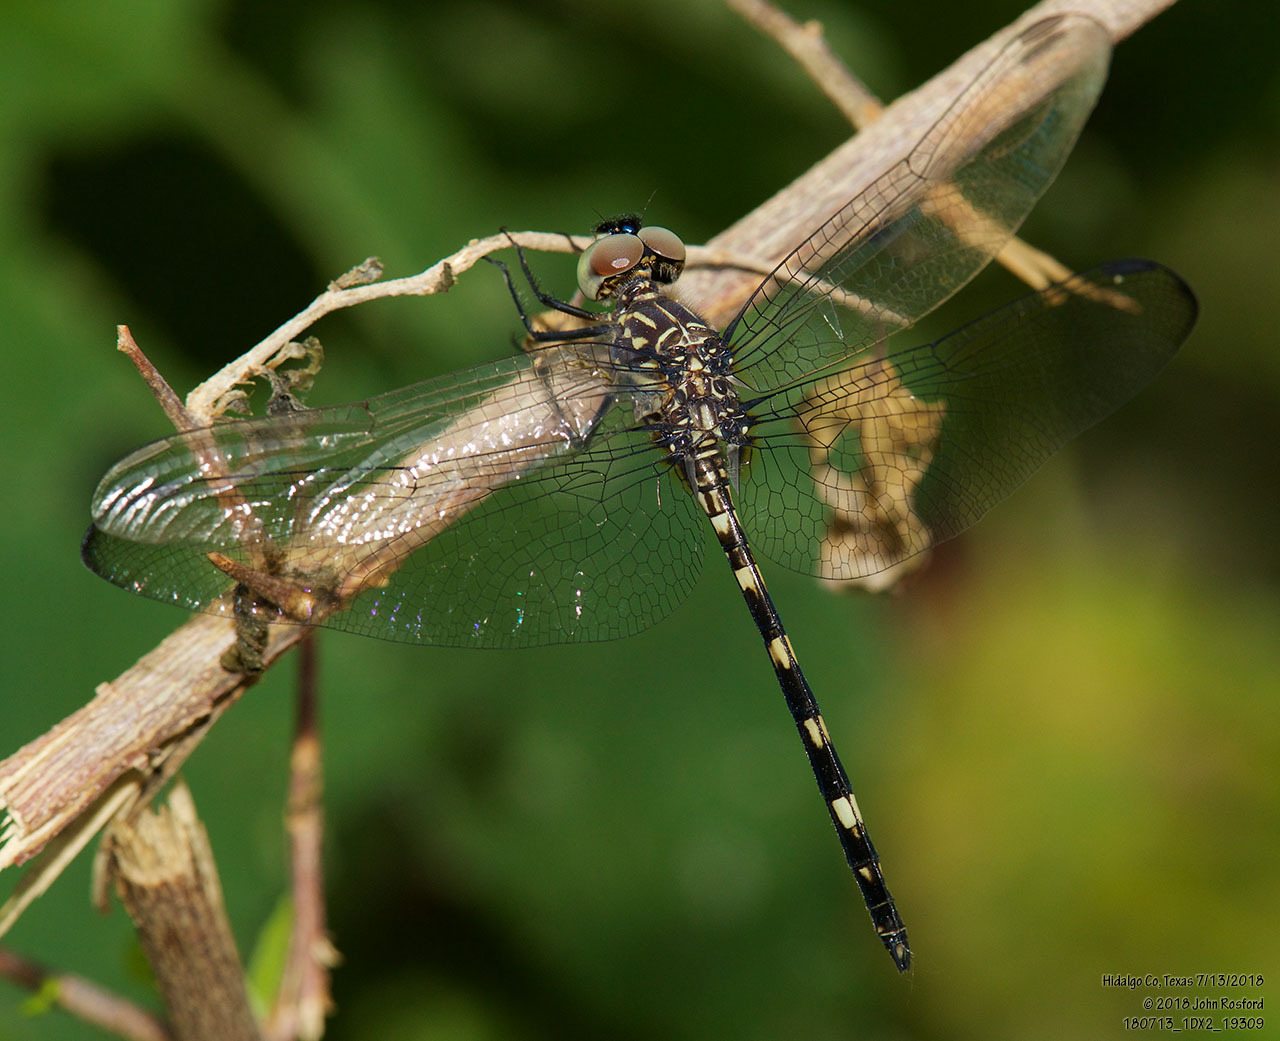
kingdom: Animalia
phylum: Arthropoda
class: Insecta
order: Odonata
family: Libellulidae
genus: Dythemis
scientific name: Dythemis nigrescens
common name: Black setwing
